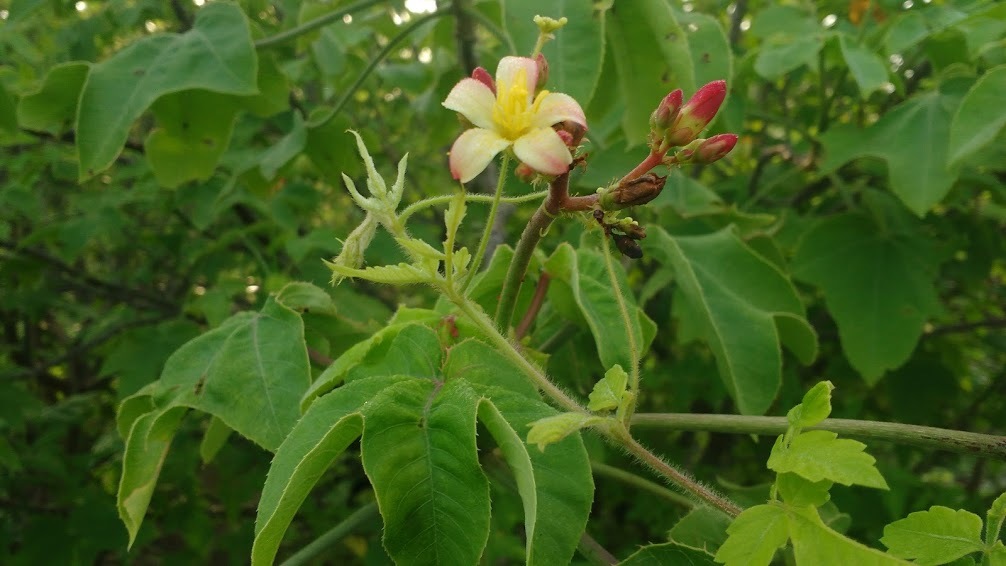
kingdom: Plantae
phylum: Tracheophyta
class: Magnoliopsida
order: Malpighiales
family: Euphorbiaceae
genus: Jatropha
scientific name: Jatropha mollissima
